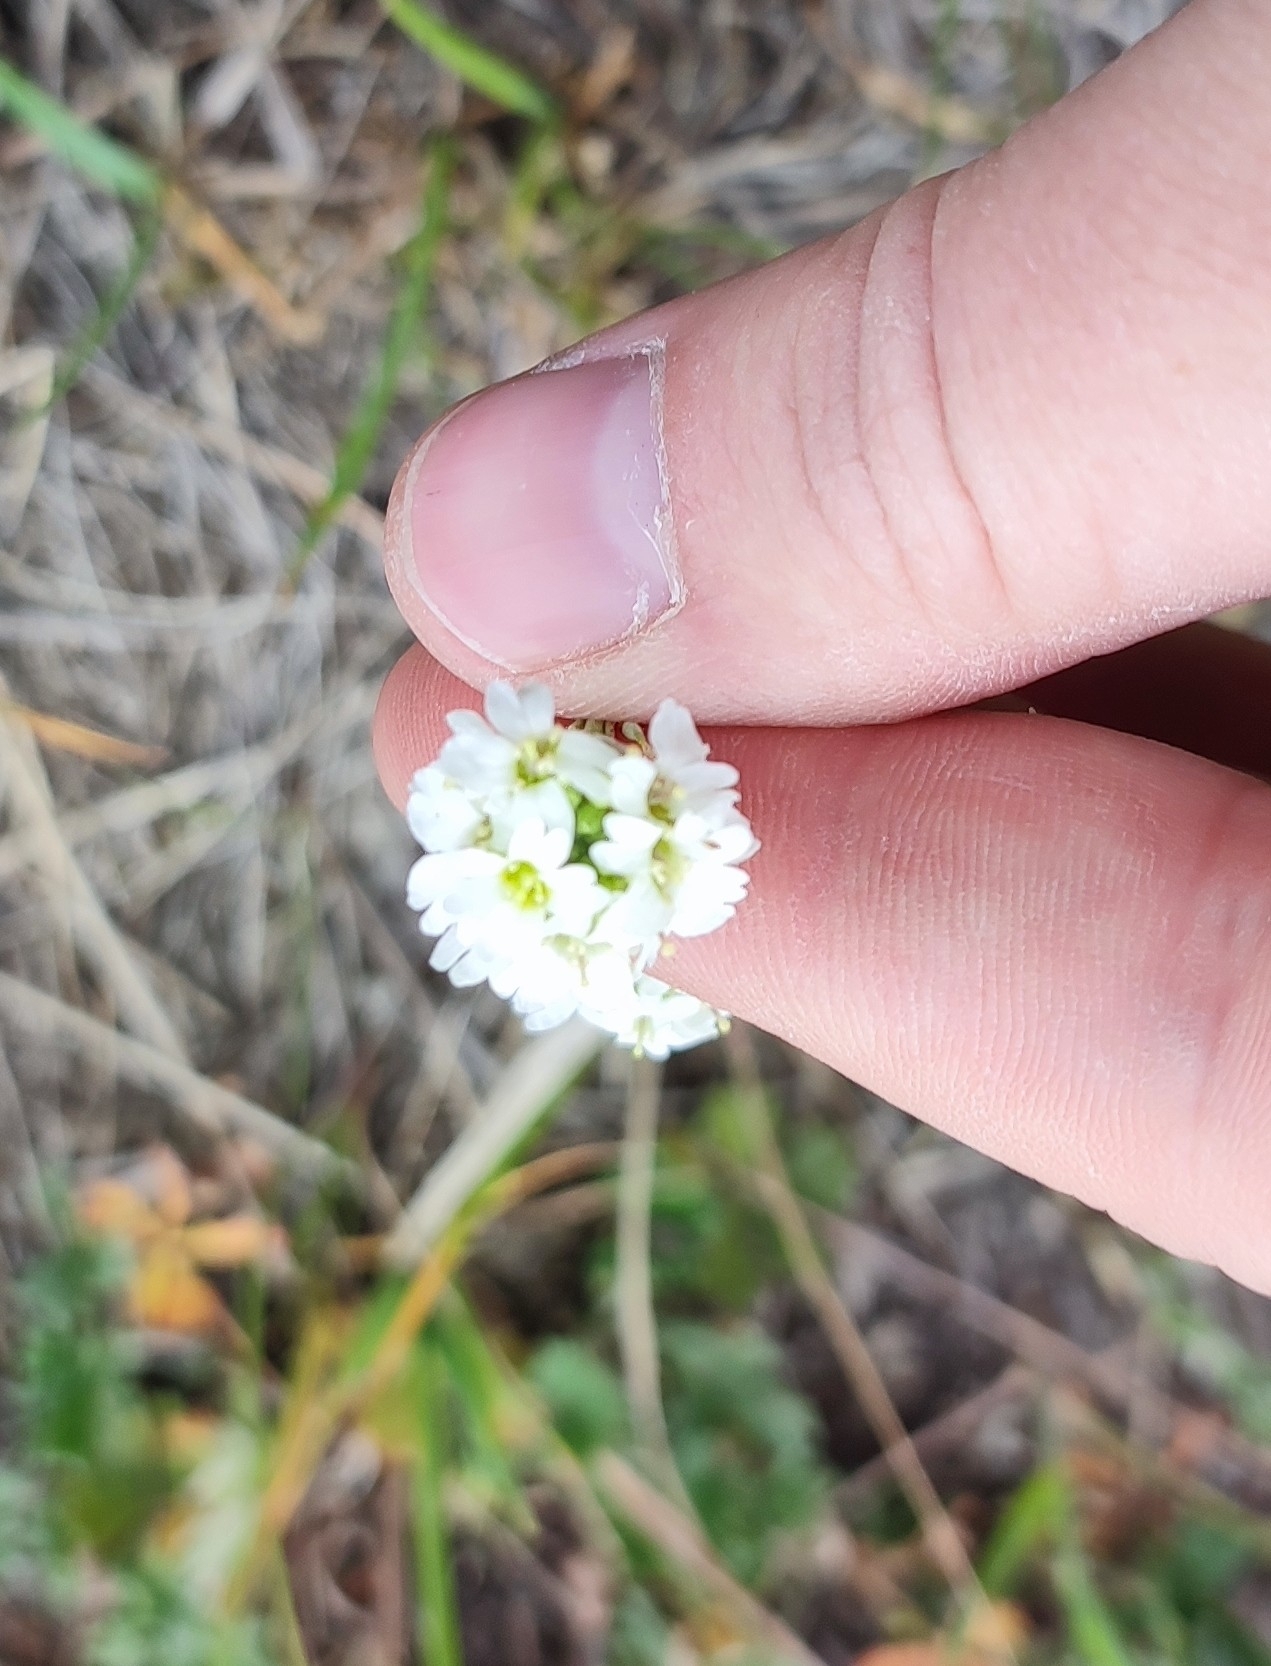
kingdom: Plantae
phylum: Tracheophyta
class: Magnoliopsida
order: Brassicales
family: Brassicaceae
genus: Berteroa
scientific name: Berteroa incana
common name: Hoary alison
